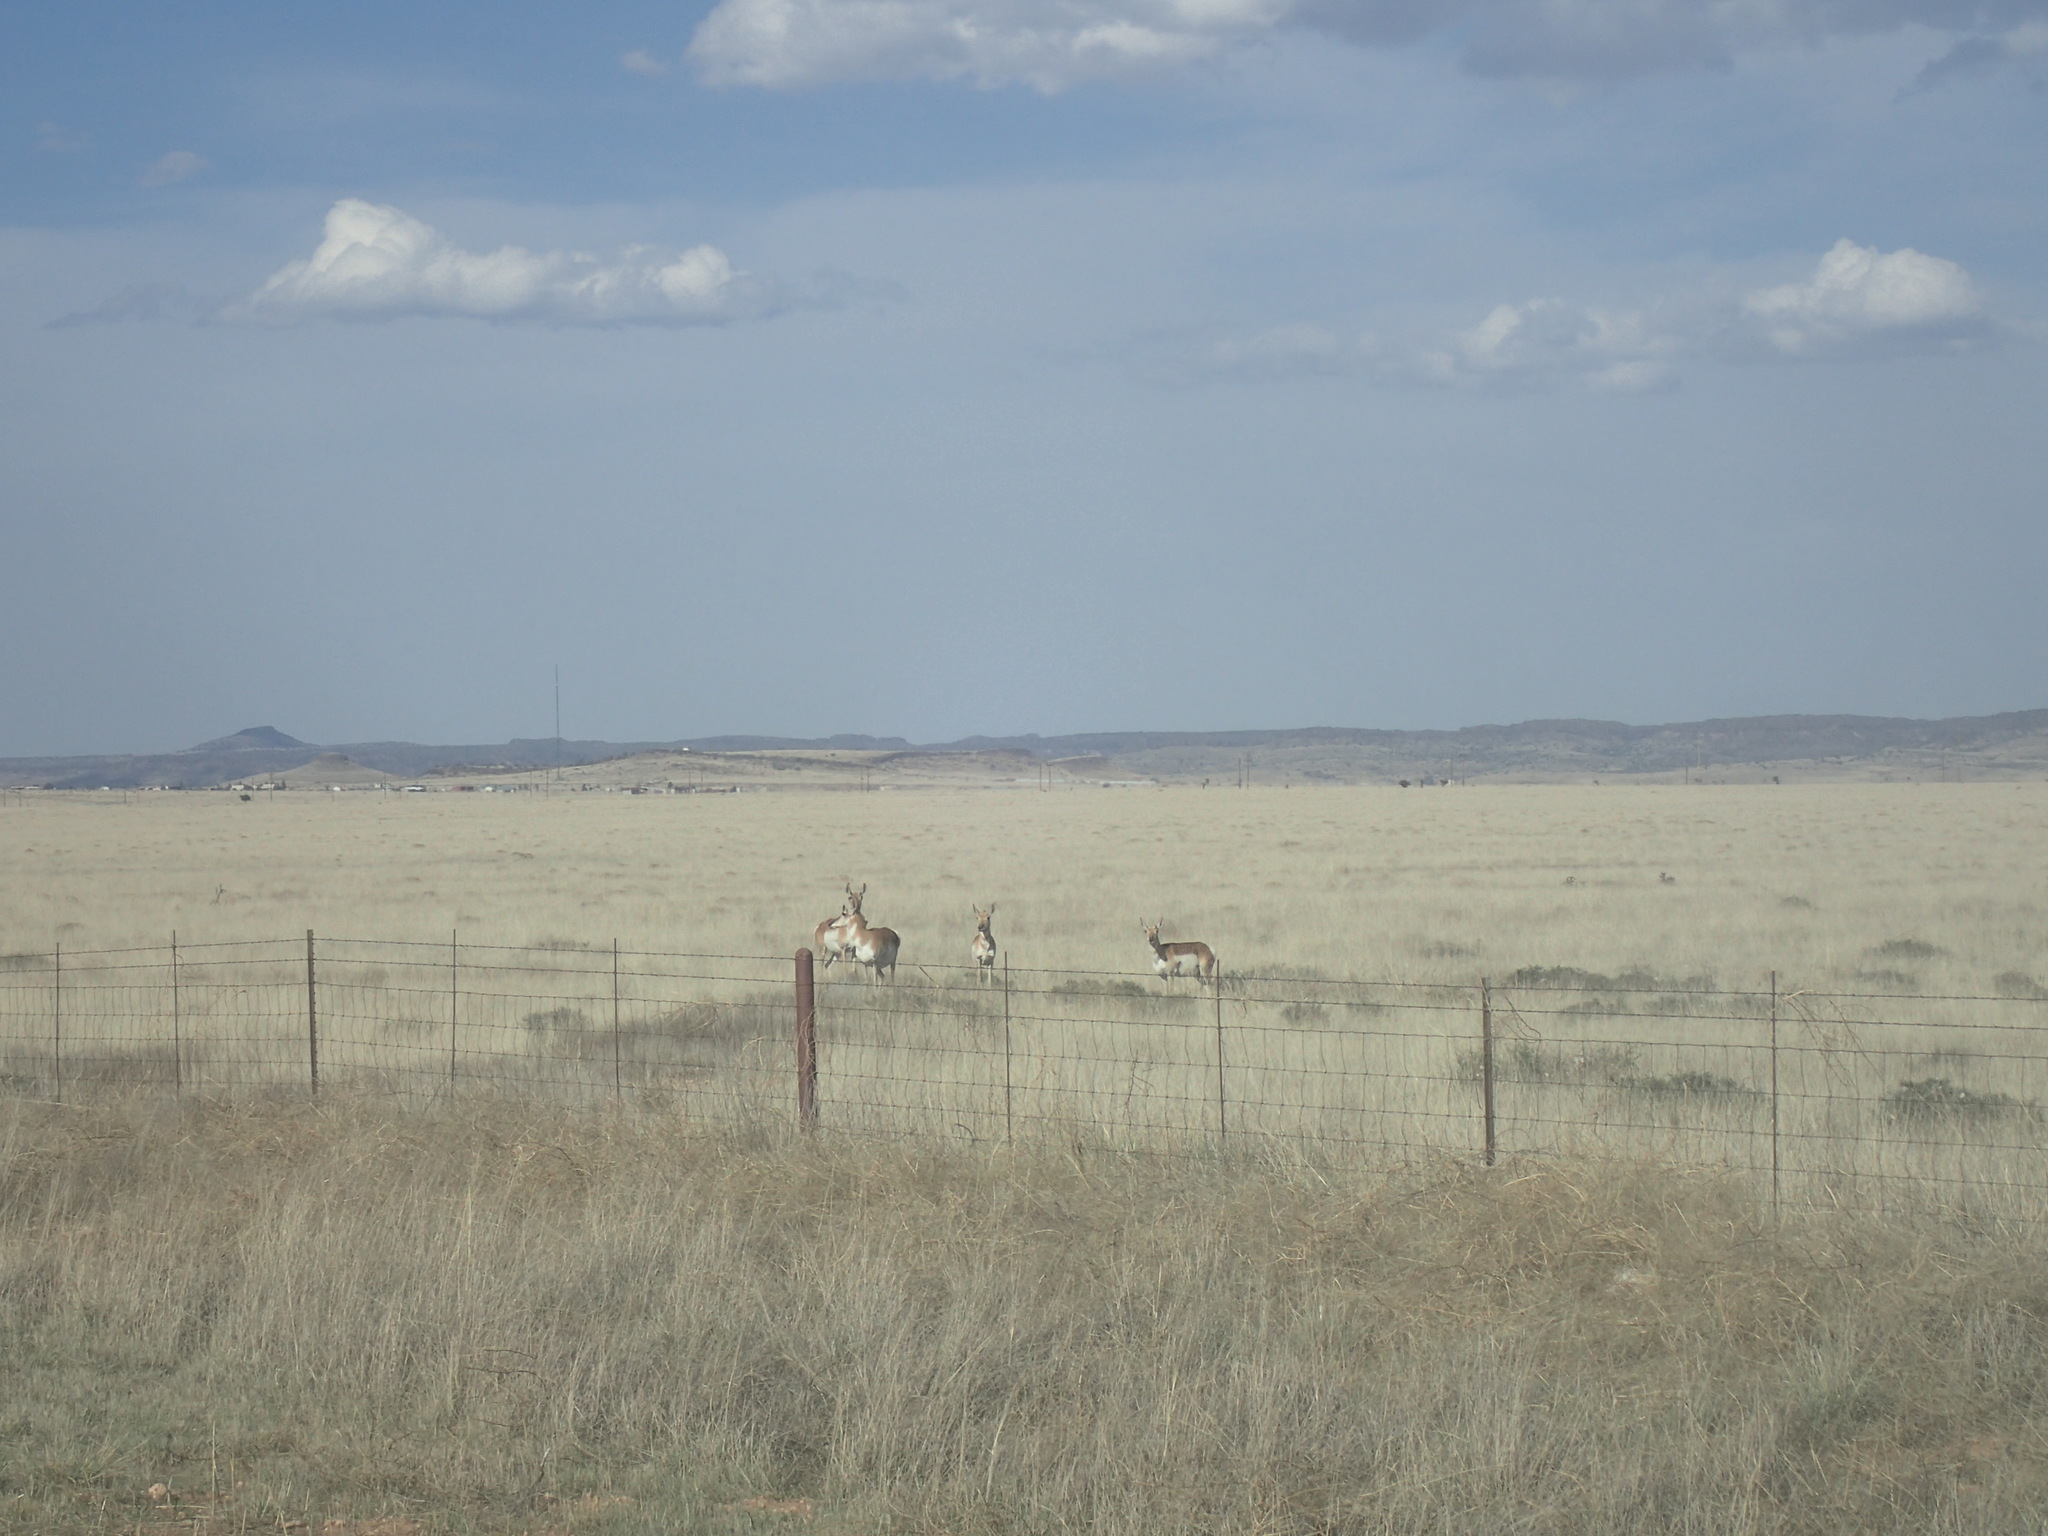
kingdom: Animalia
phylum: Chordata
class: Mammalia
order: Artiodactyla
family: Antilocapridae
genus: Antilocapra
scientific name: Antilocapra americana
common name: Pronghorn
